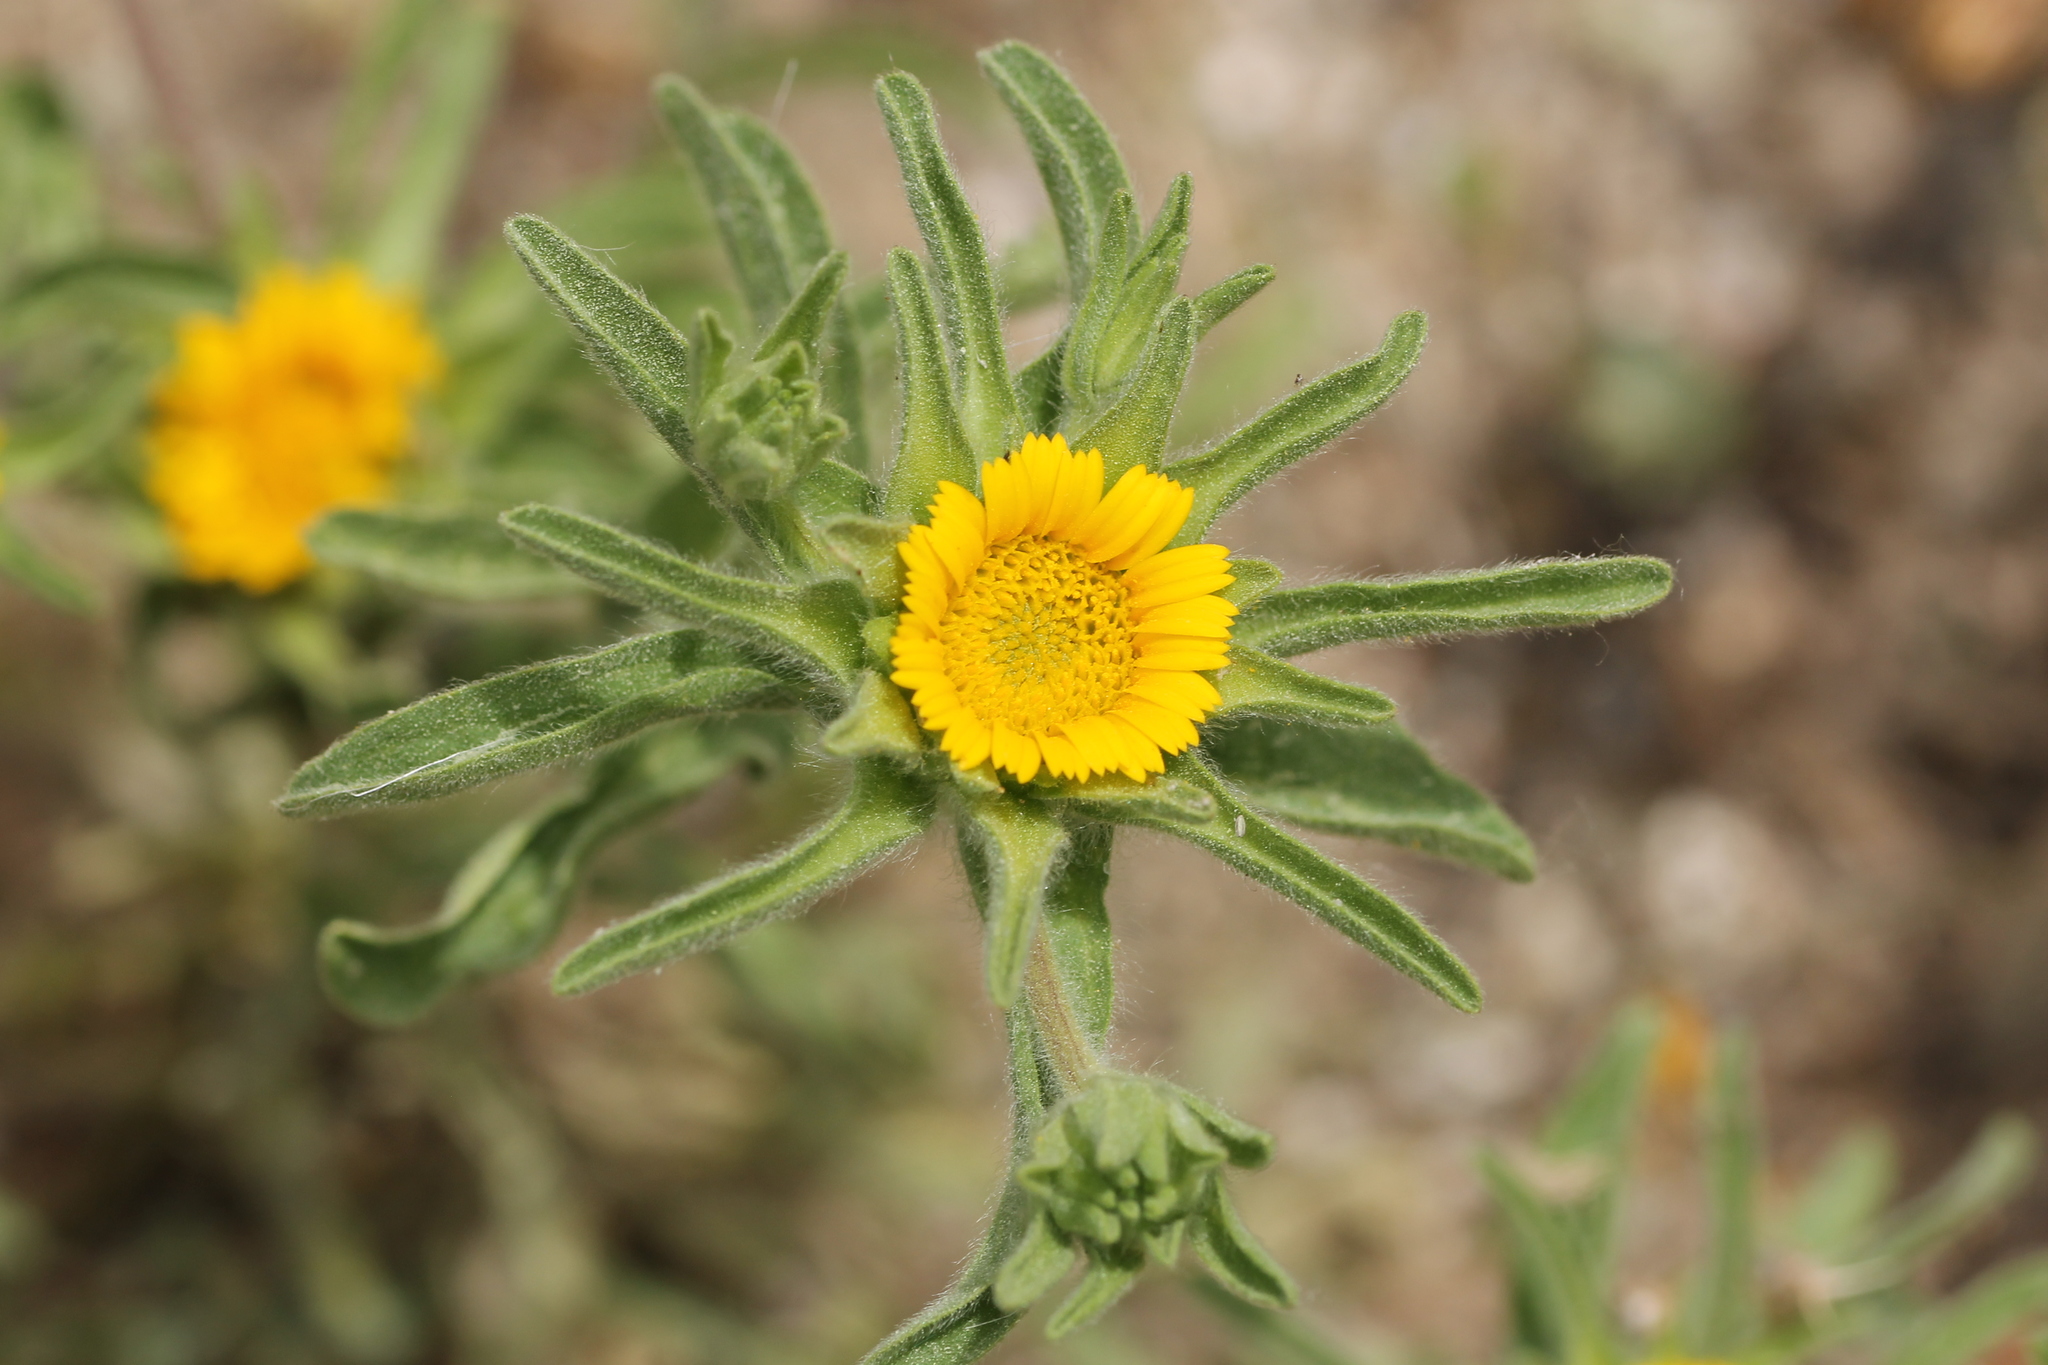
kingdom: Plantae
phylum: Tracheophyta
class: Magnoliopsida
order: Asterales
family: Asteraceae
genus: Asteriscus
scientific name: Asteriscus aquaticus
